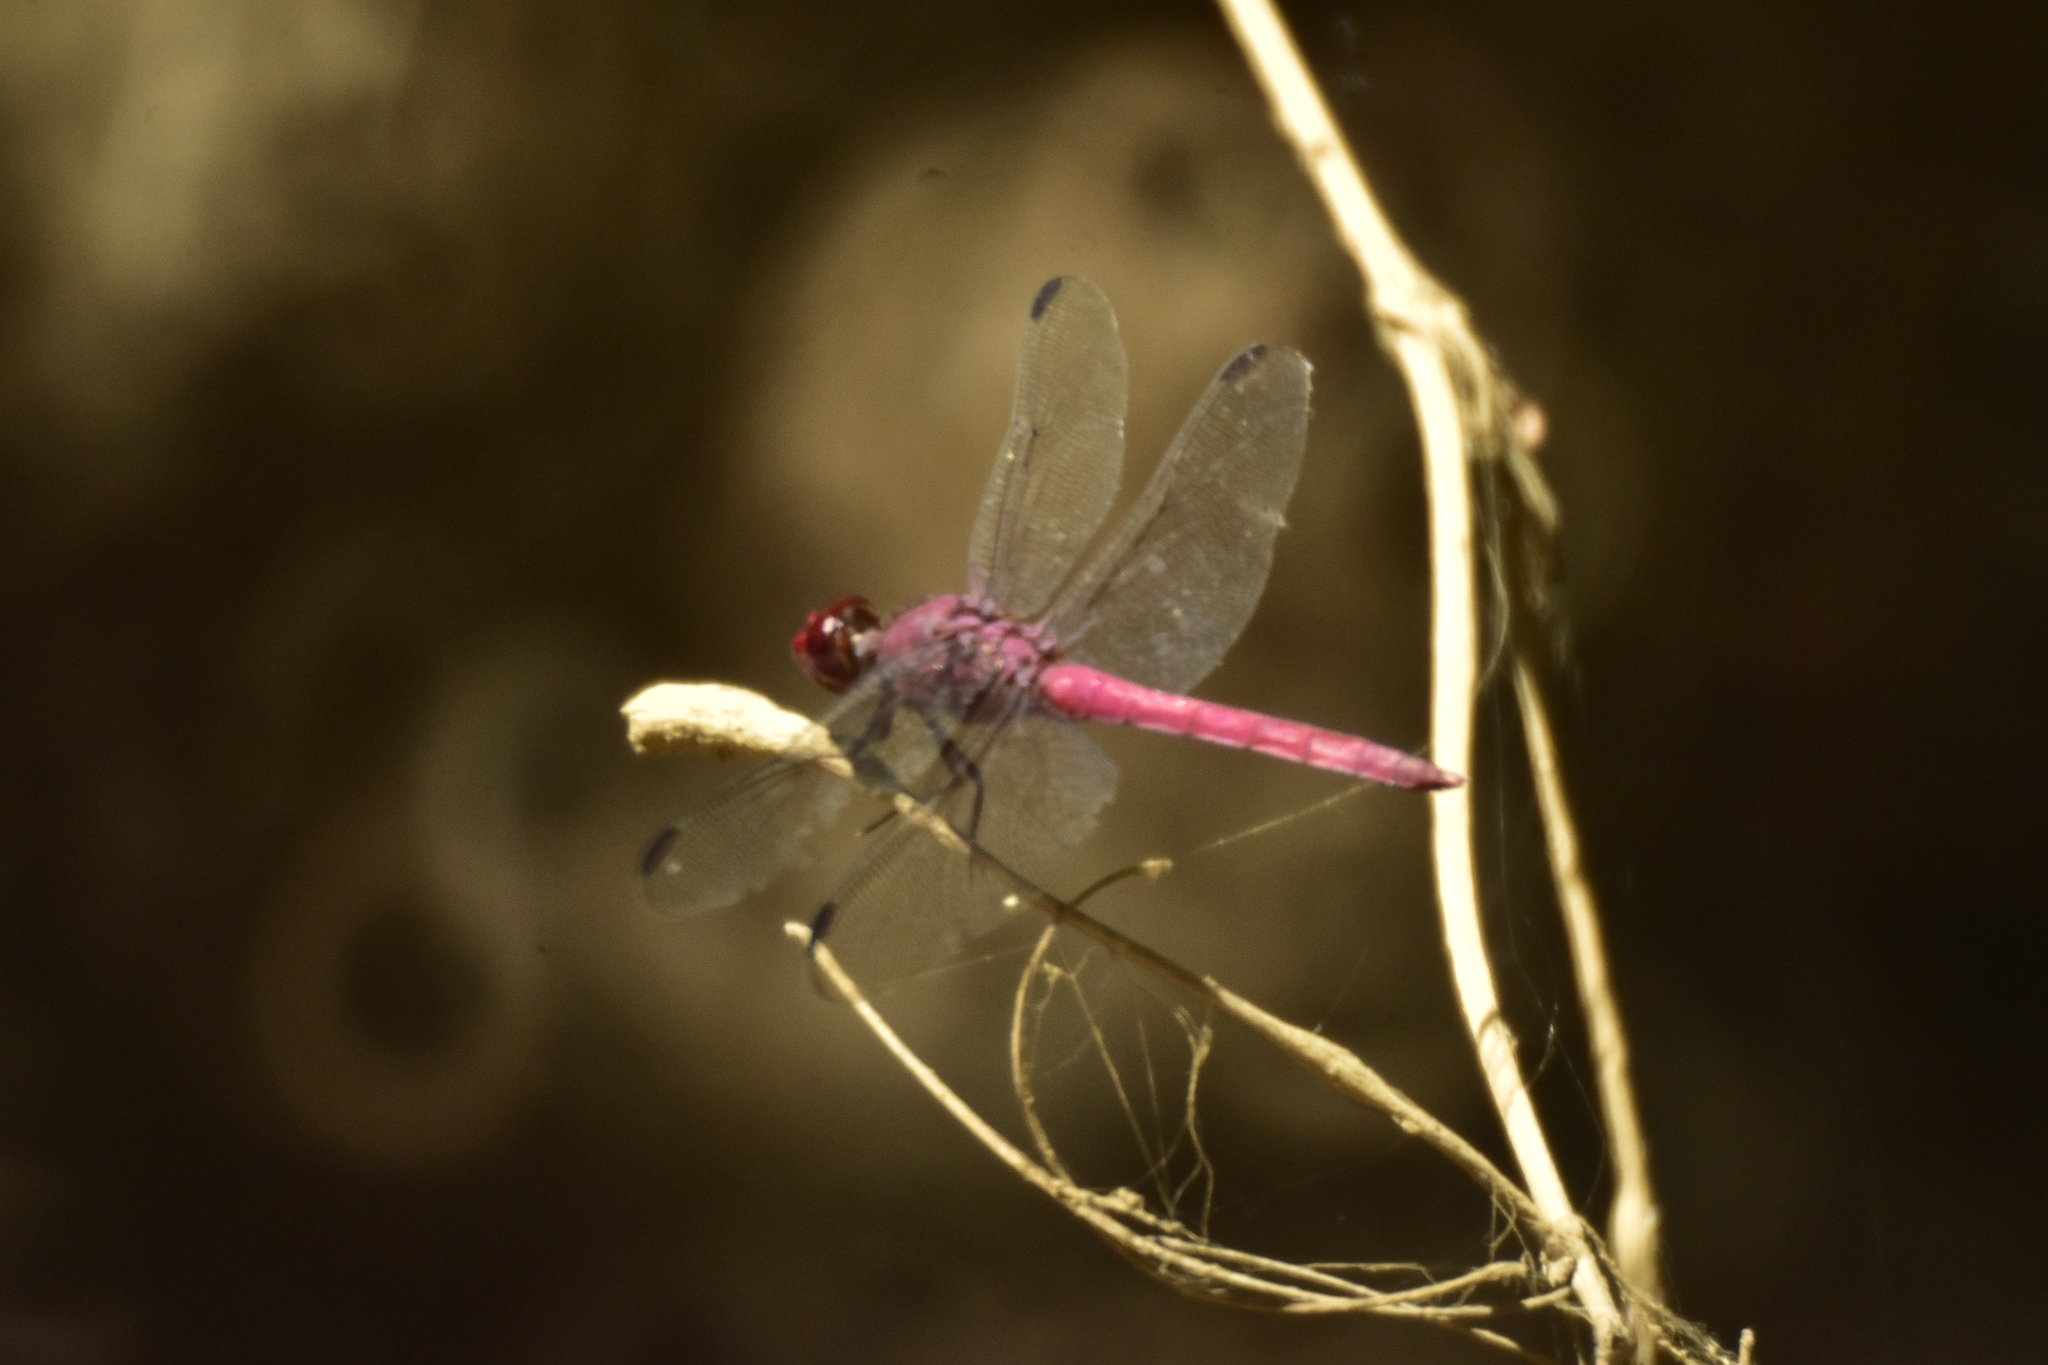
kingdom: Animalia
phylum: Arthropoda
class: Insecta
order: Odonata
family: Libellulidae
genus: Orthemis
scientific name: Orthemis discolor
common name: Carmine skimmer
